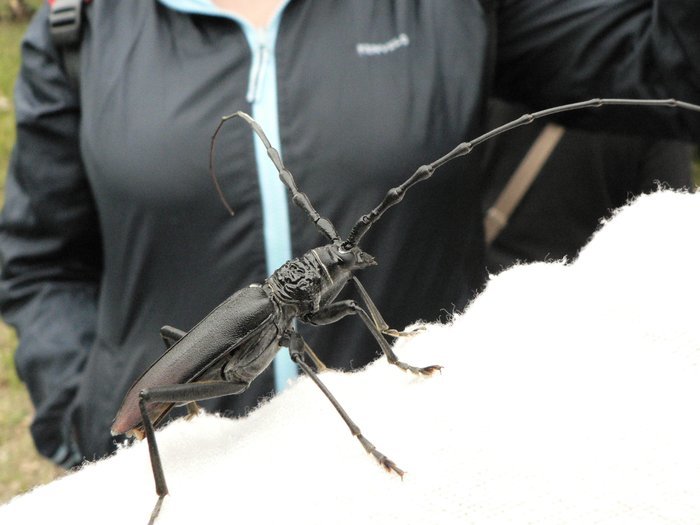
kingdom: Animalia
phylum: Arthropoda
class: Insecta
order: Coleoptera
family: Cerambycidae
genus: Cerambyx
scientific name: Cerambyx cerdo
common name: Cerambyx longicorn
